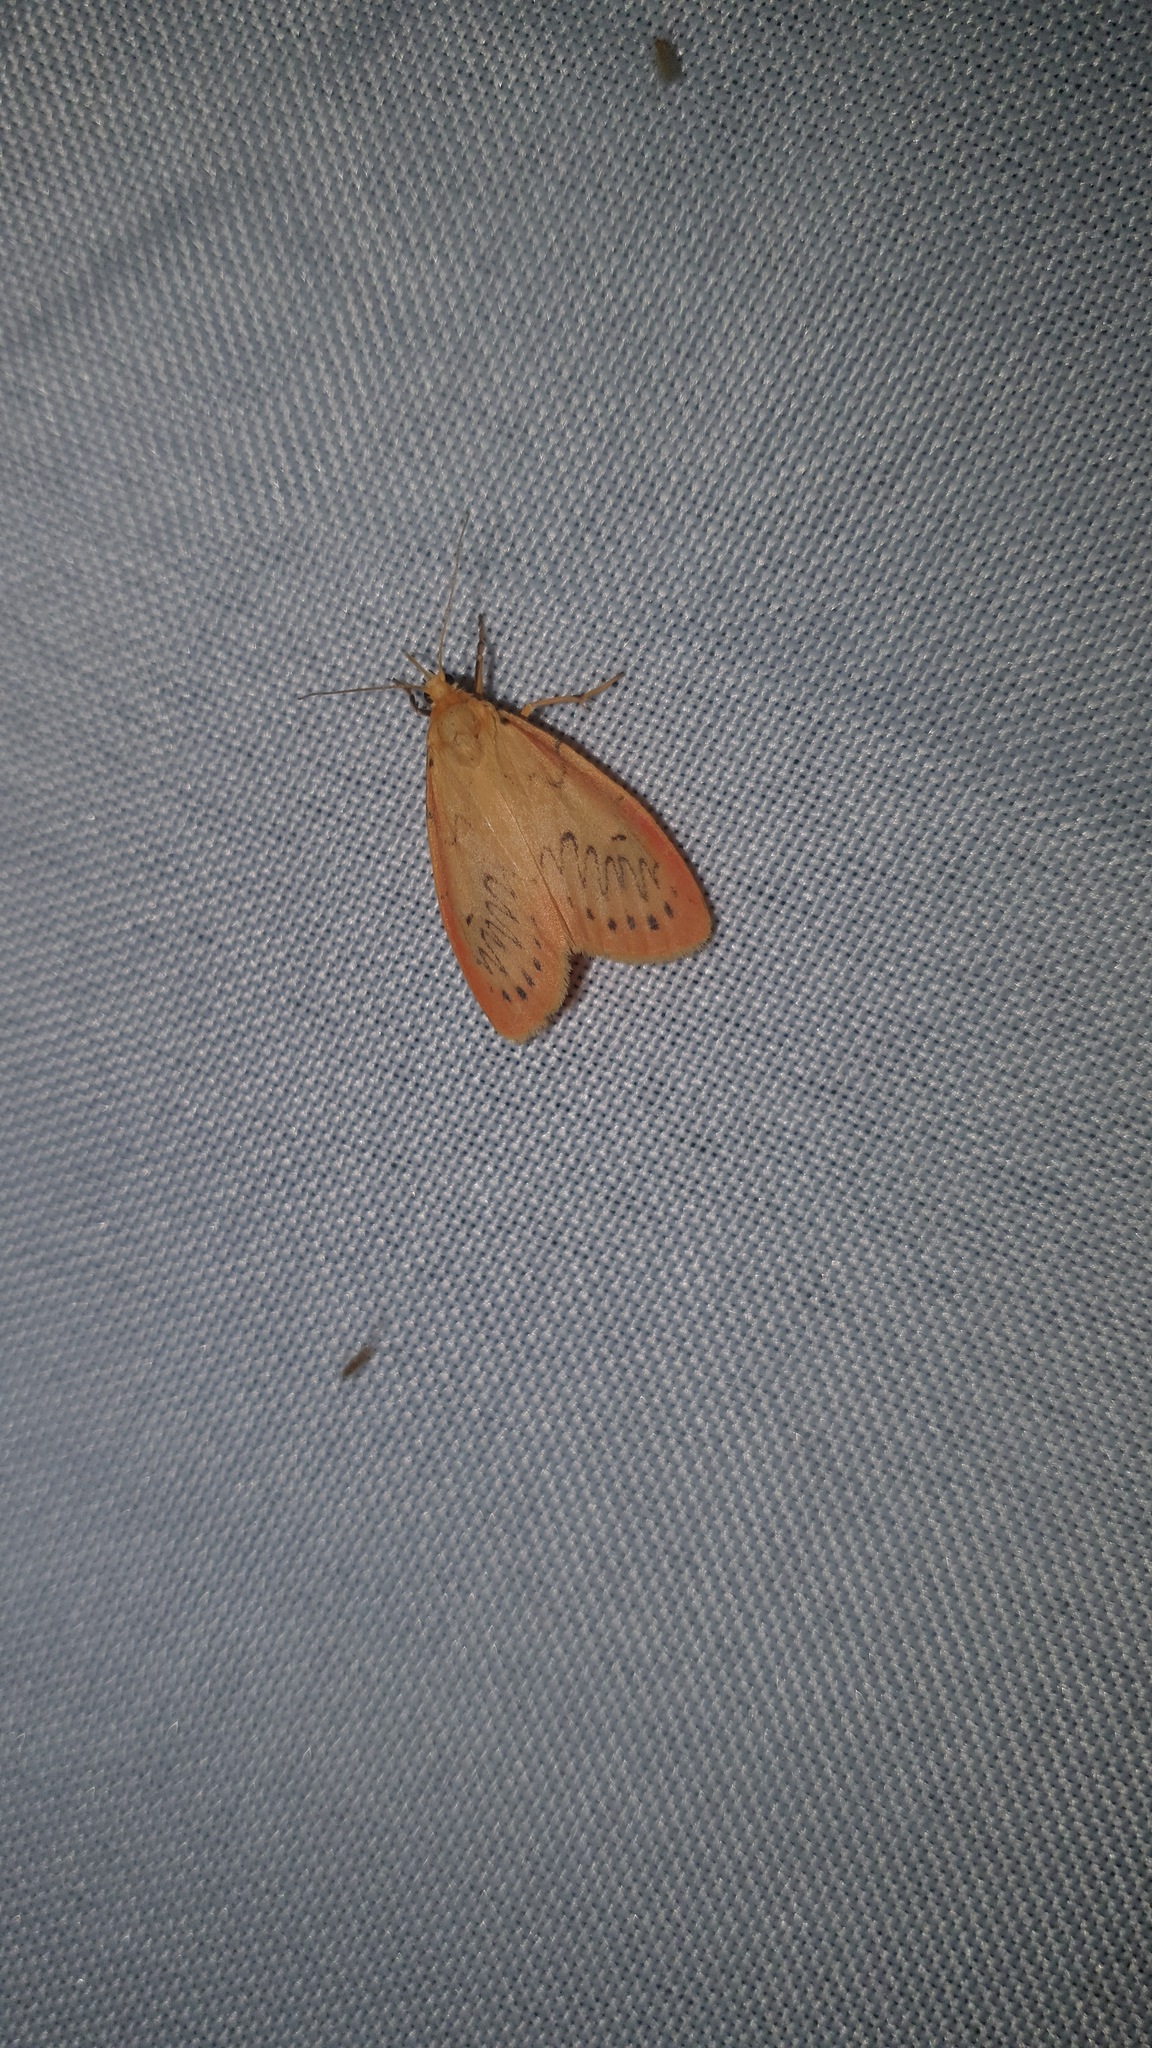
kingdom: Animalia
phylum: Arthropoda
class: Insecta
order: Lepidoptera
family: Erebidae
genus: Miltochrista
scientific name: Miltochrista miniata
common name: Rosy footman
